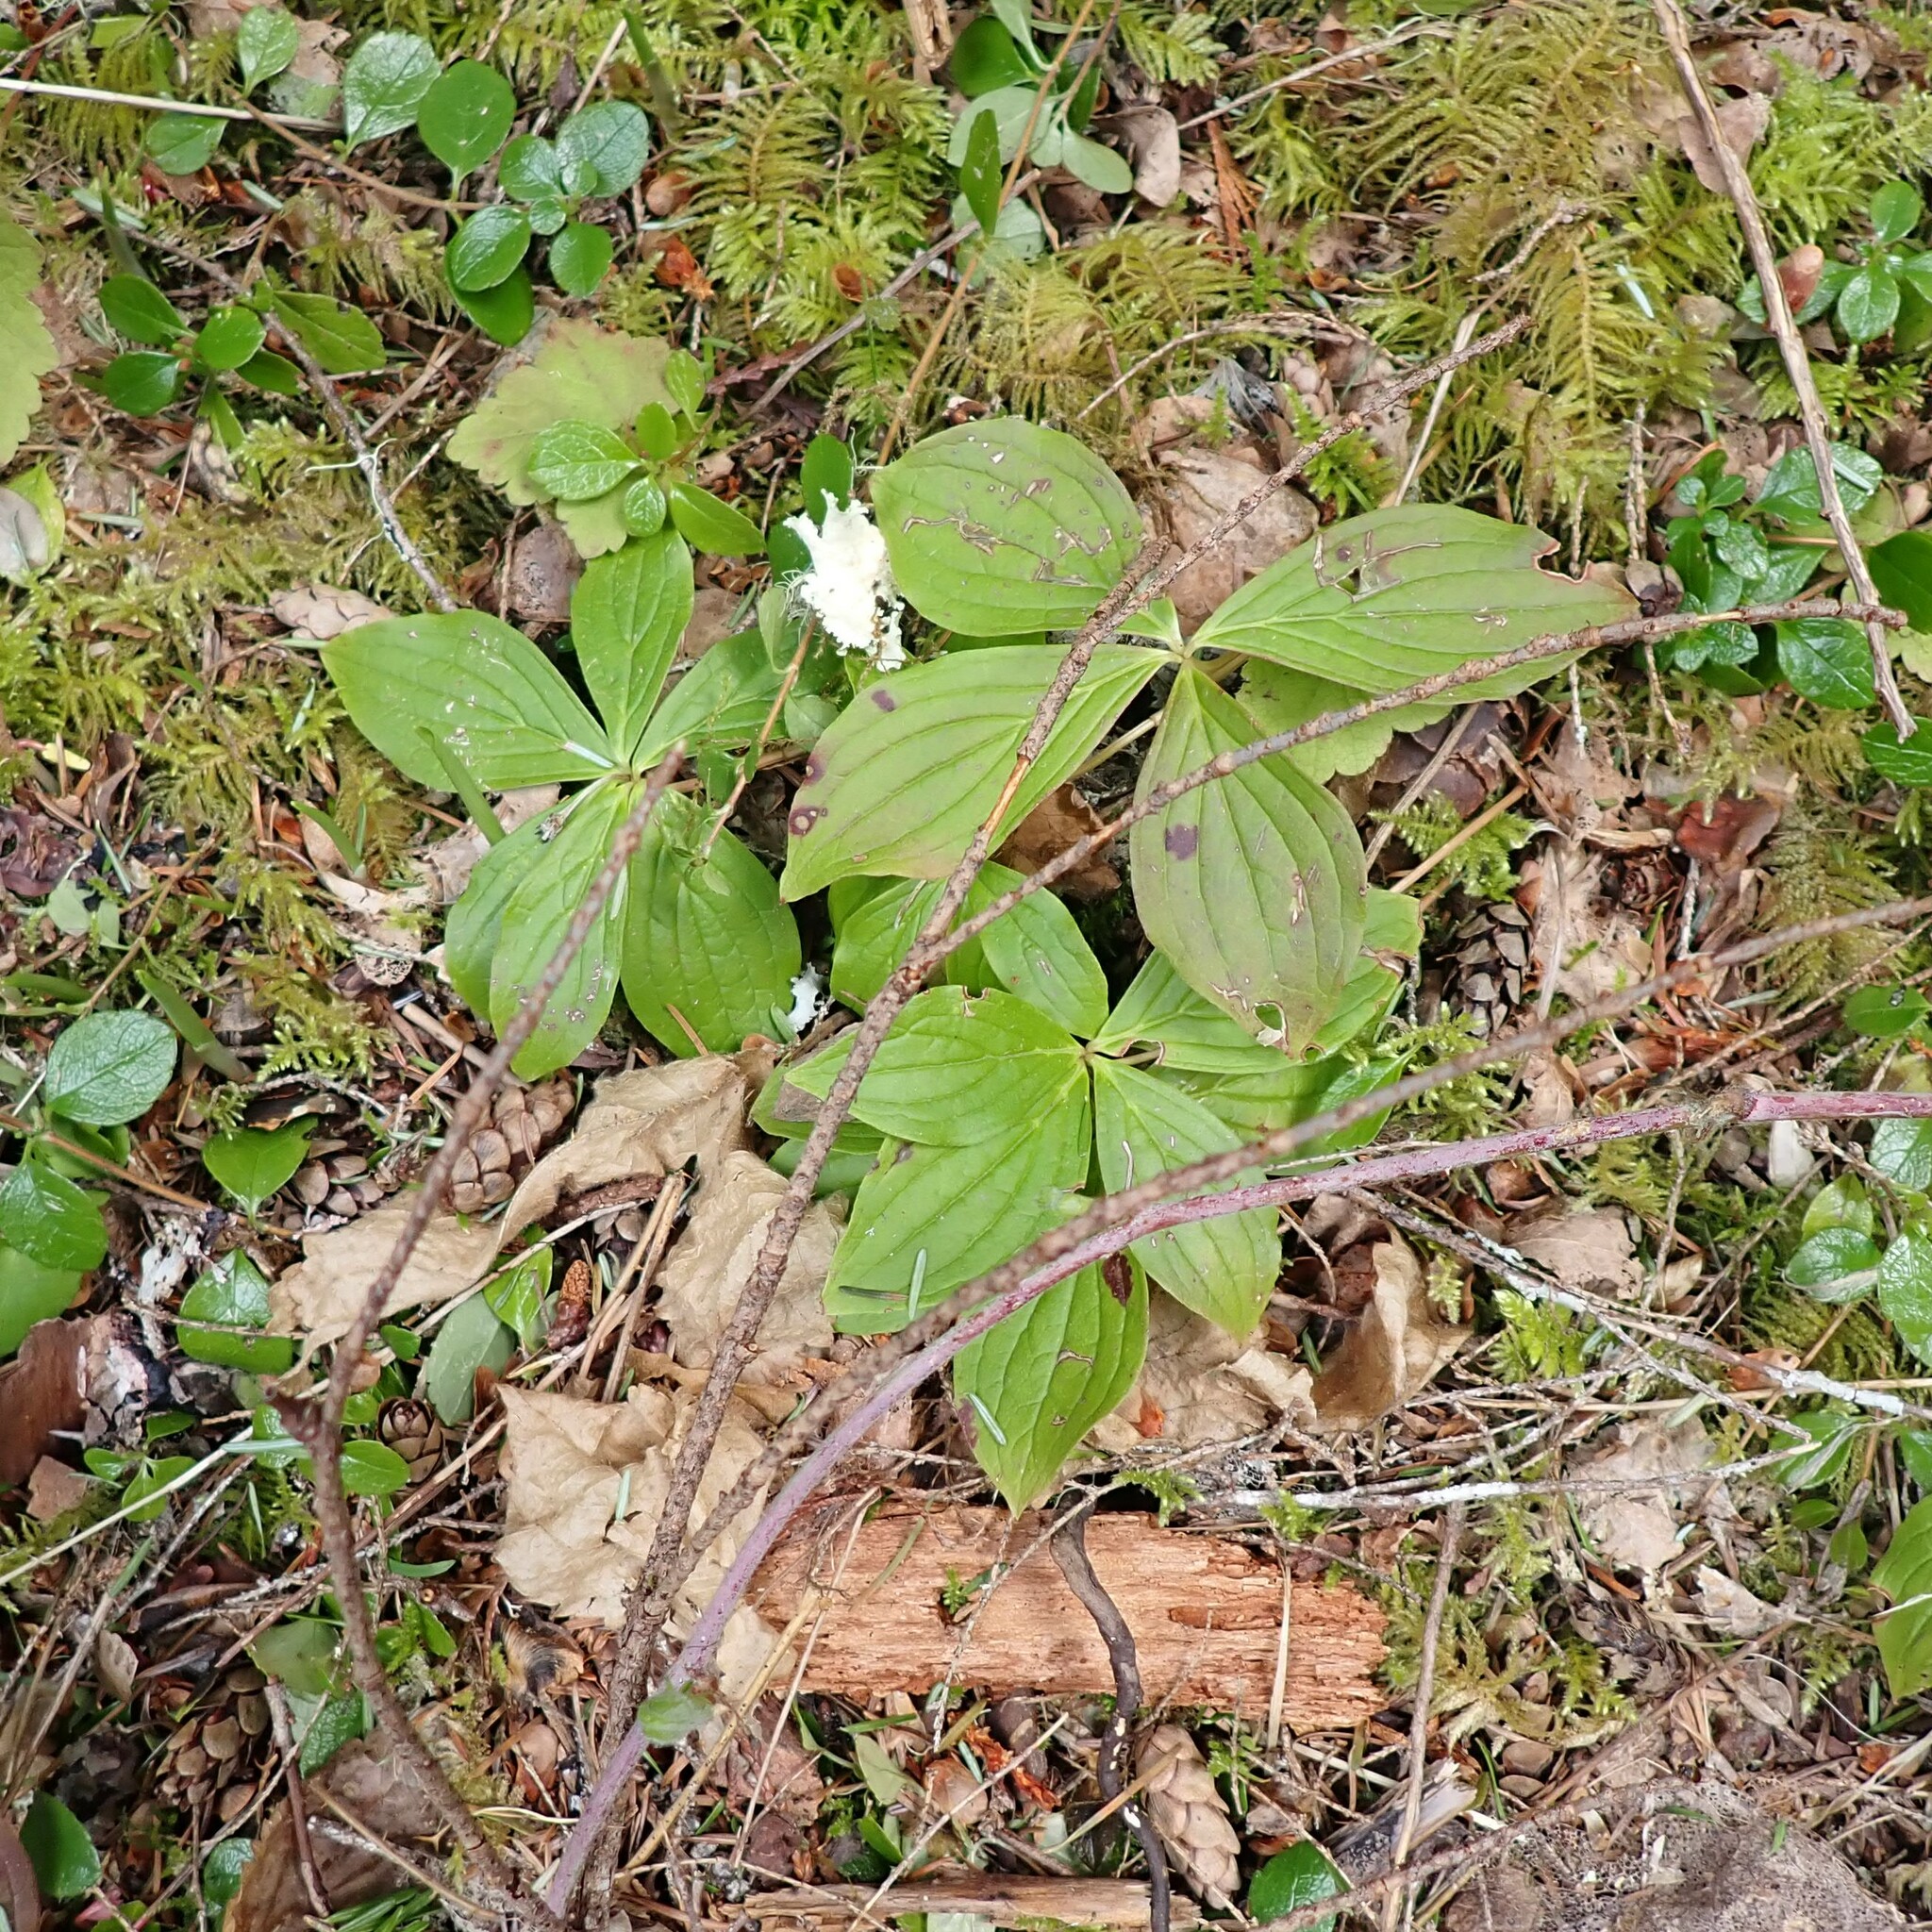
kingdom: Plantae
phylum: Tracheophyta
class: Magnoliopsida
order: Cornales
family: Cornaceae
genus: Cornus
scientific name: Cornus unalaschkensis
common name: Alaska bunchberry
